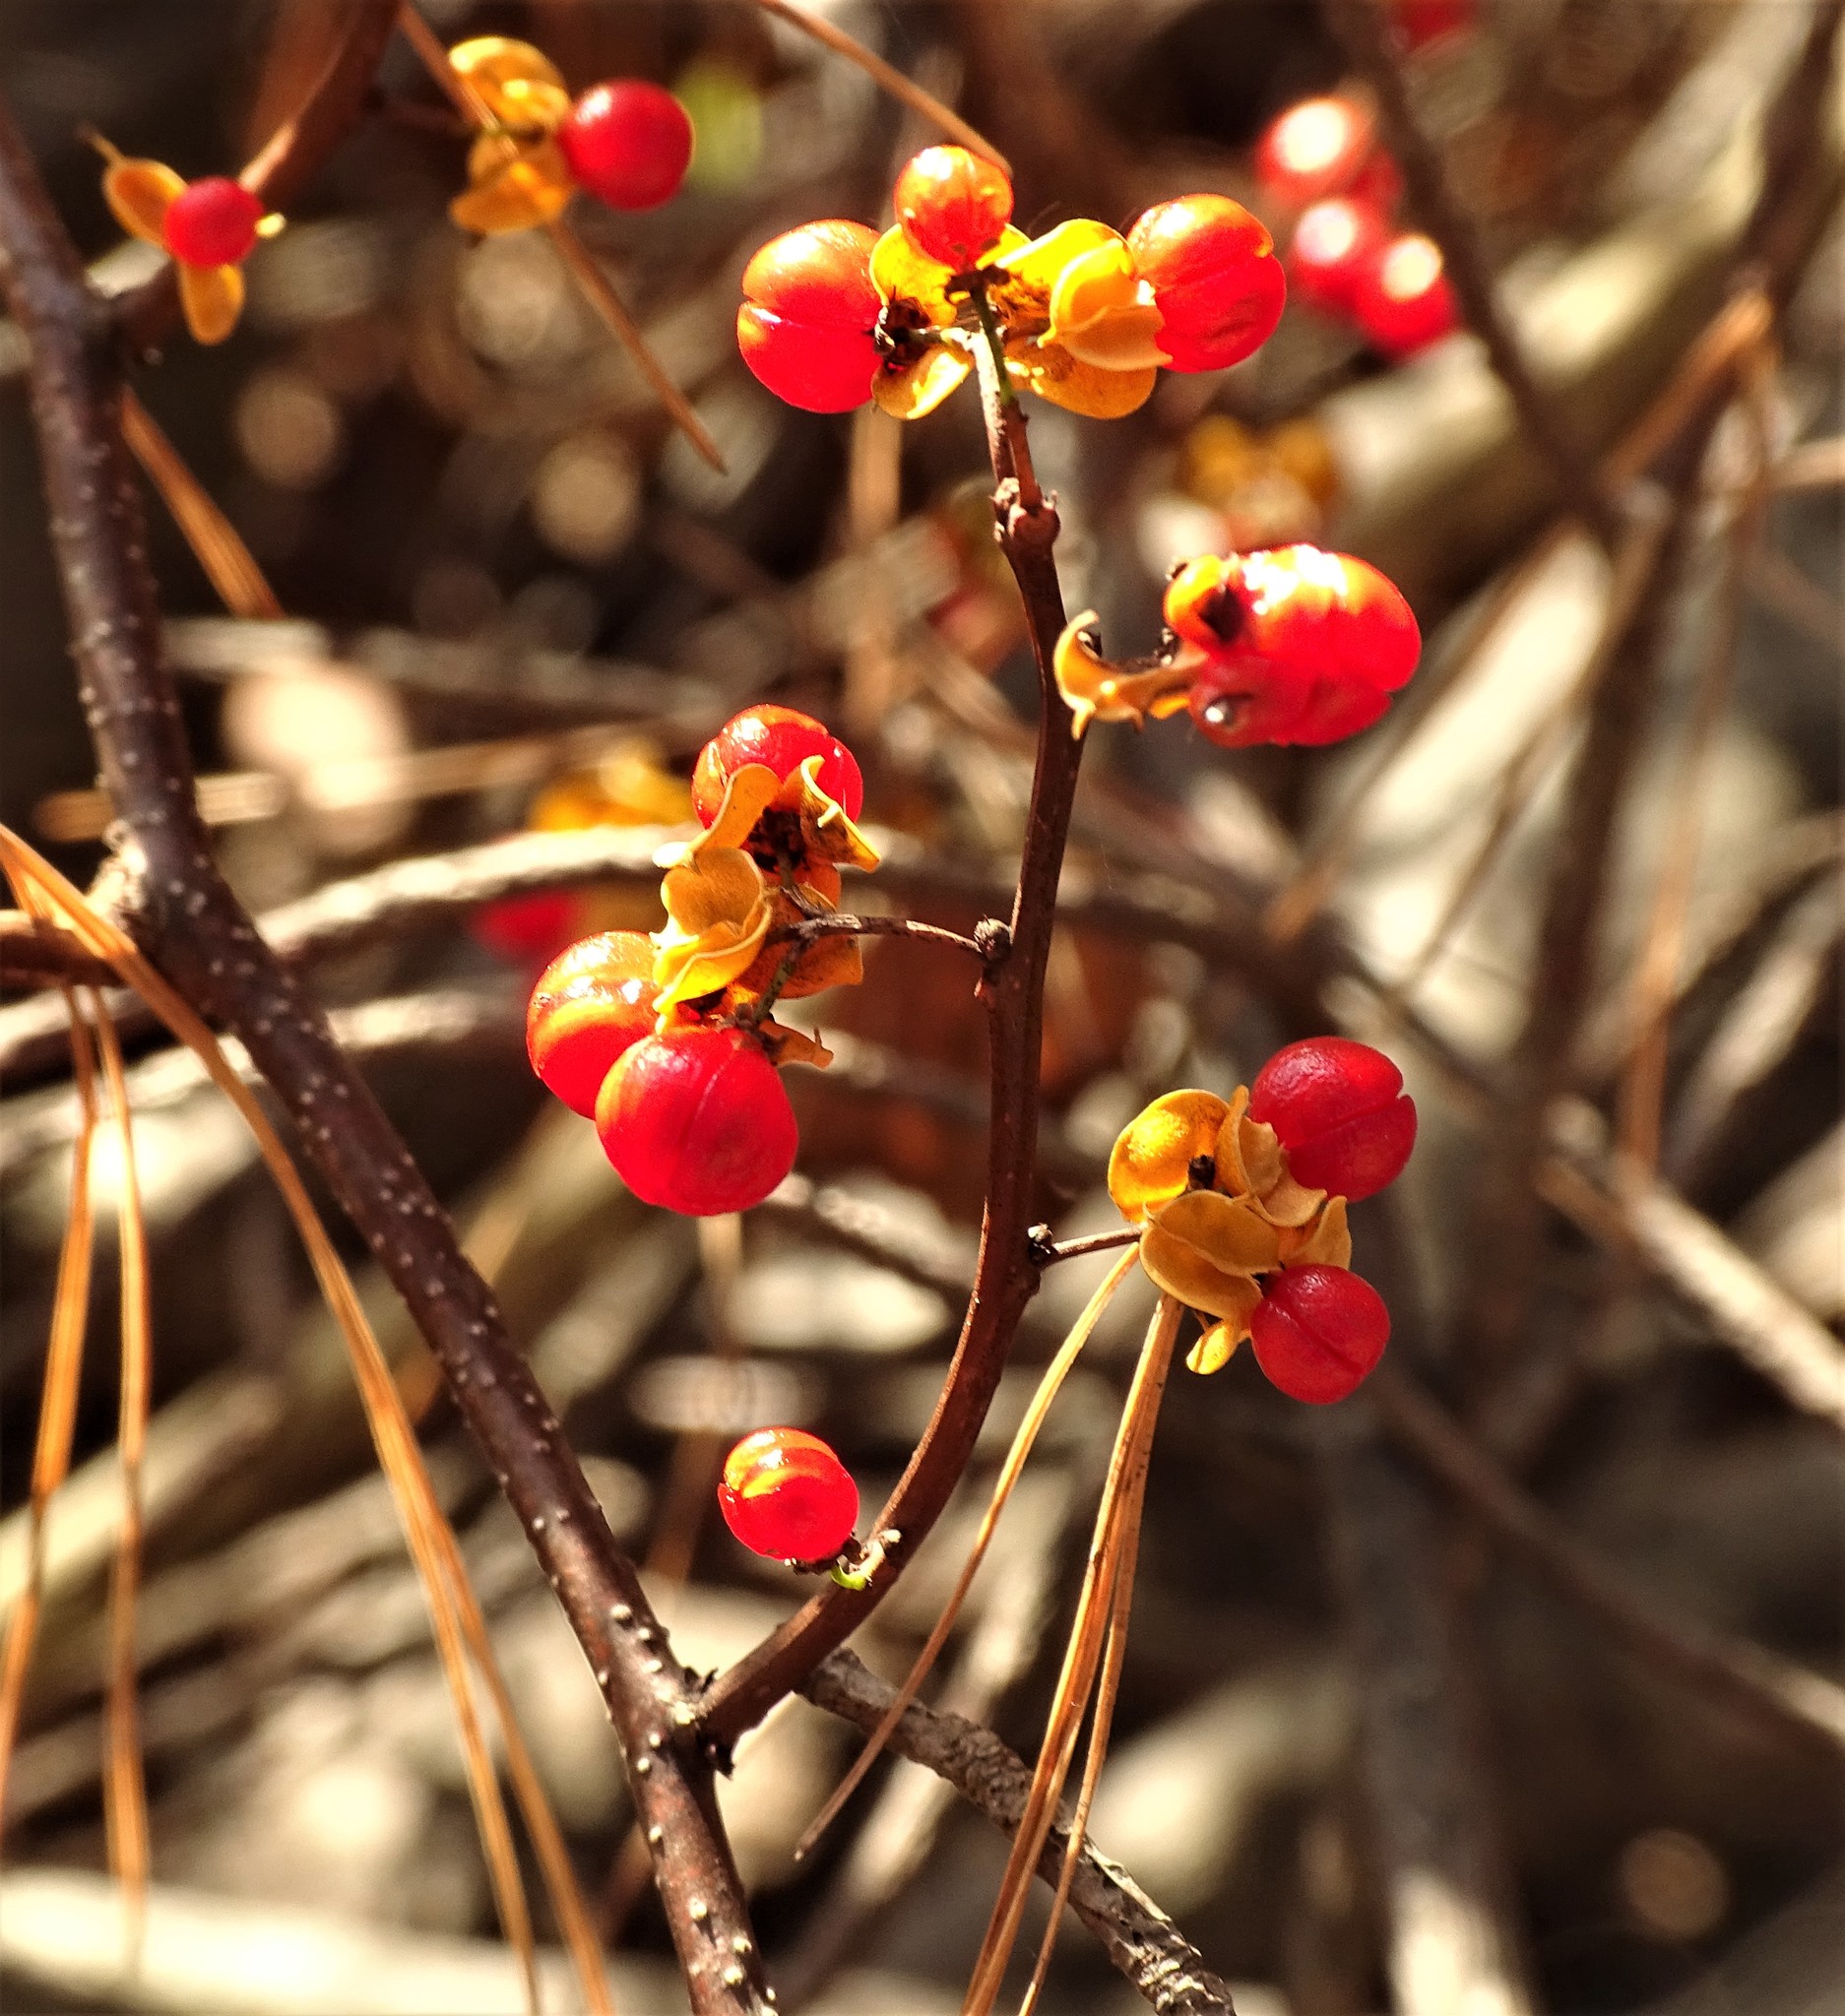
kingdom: Plantae
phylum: Tracheophyta
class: Magnoliopsida
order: Celastrales
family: Celastraceae
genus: Celastrus
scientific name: Celastrus orbiculatus
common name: Oriental bittersweet
